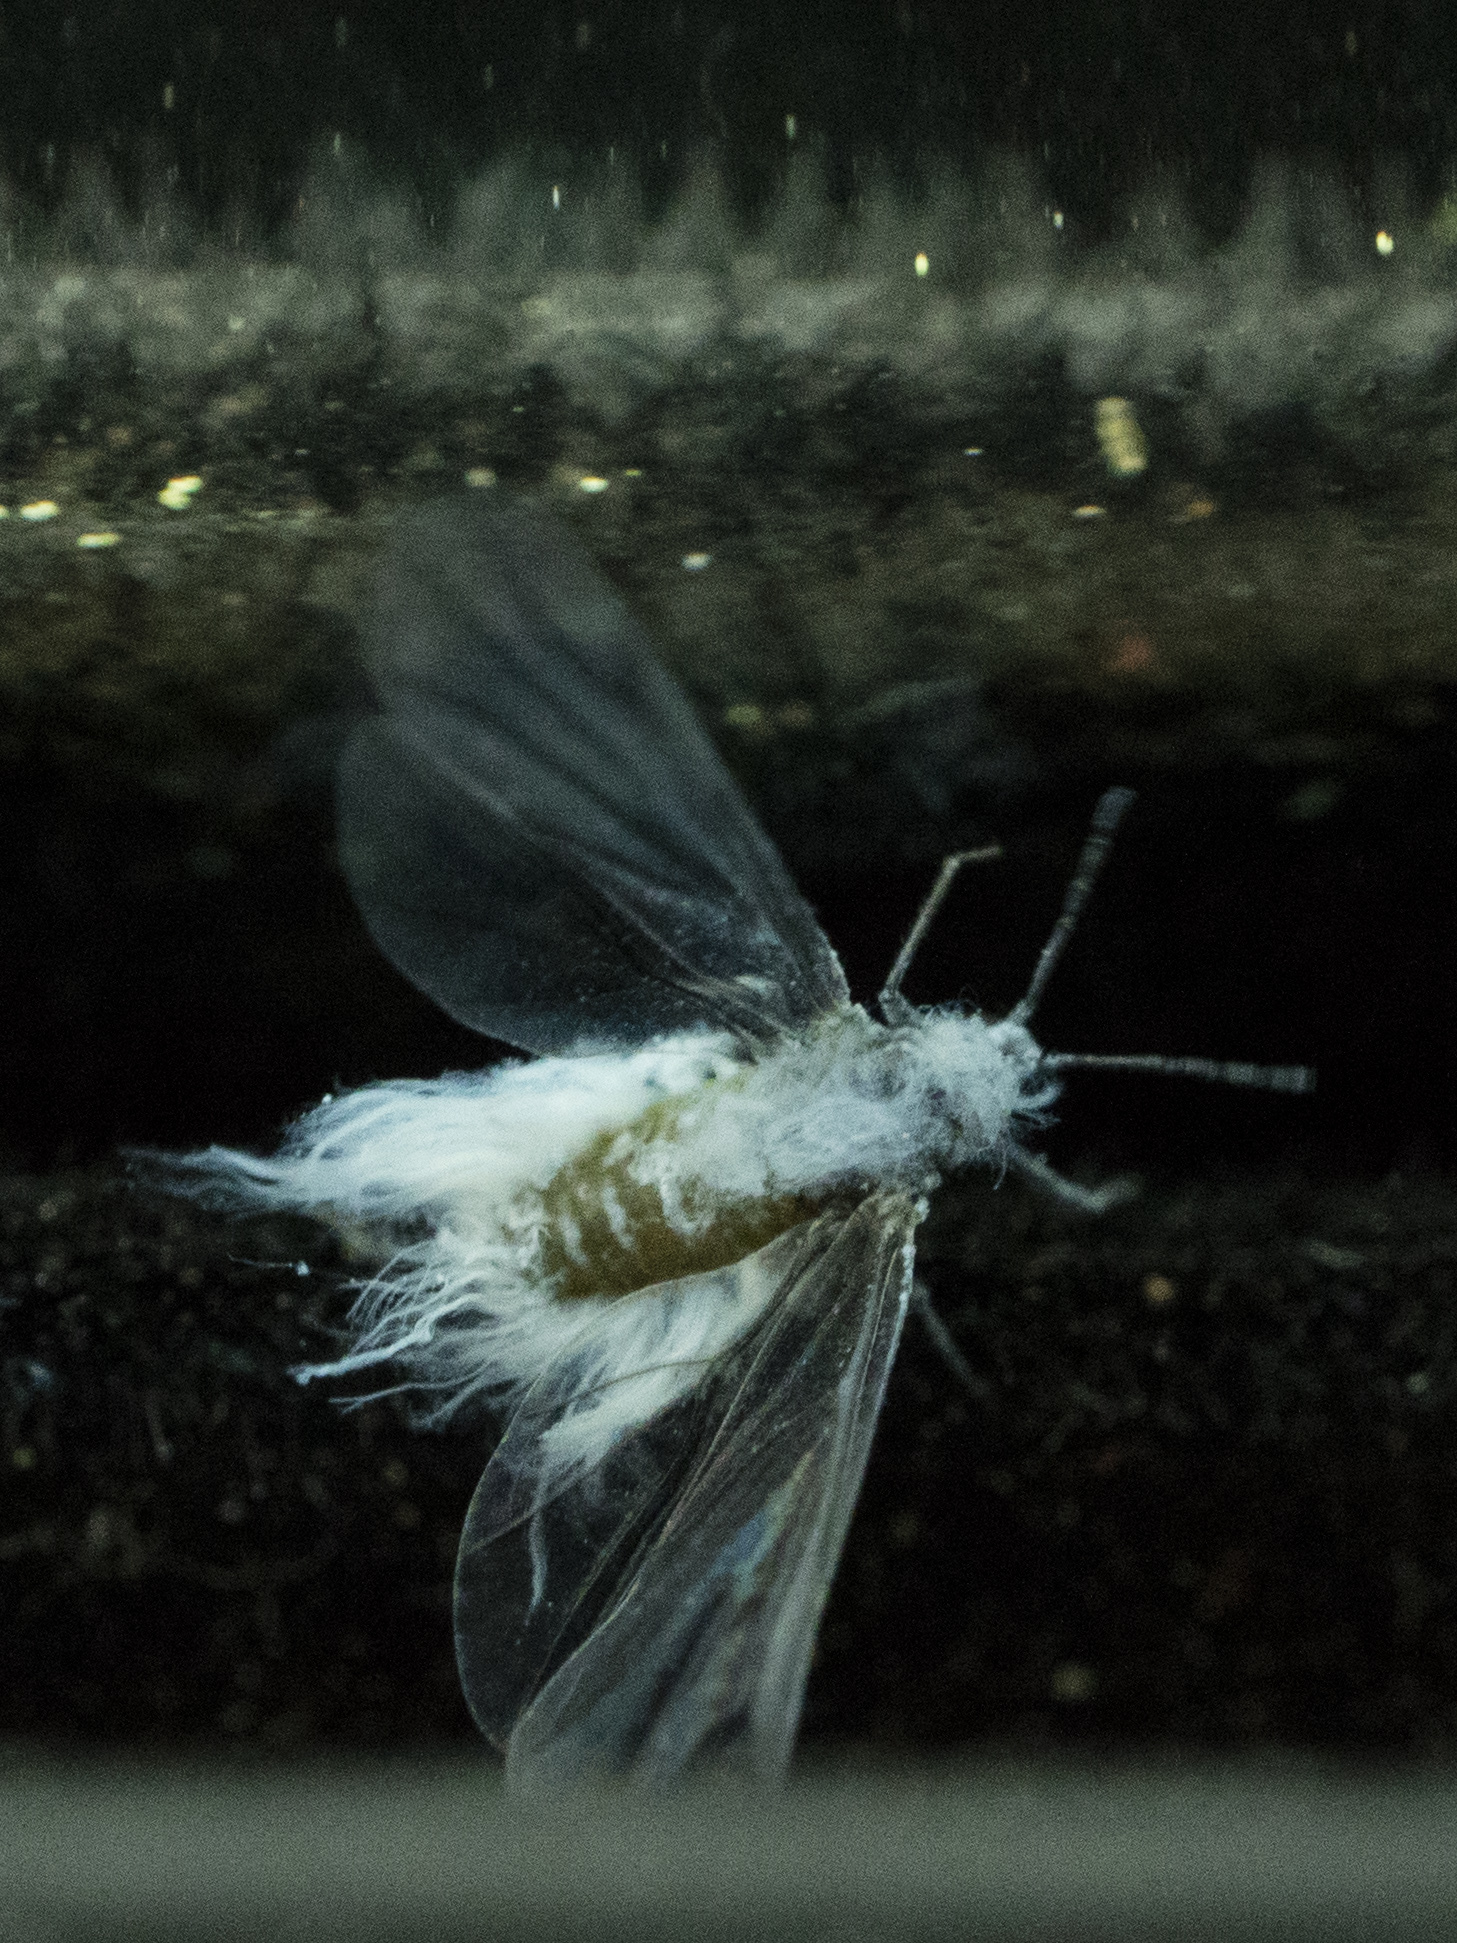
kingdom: Animalia
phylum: Arthropoda
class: Insecta
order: Hemiptera
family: Aphididae
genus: Eriosoma
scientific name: Eriosoma lanigerum
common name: Woolly apple aphid
